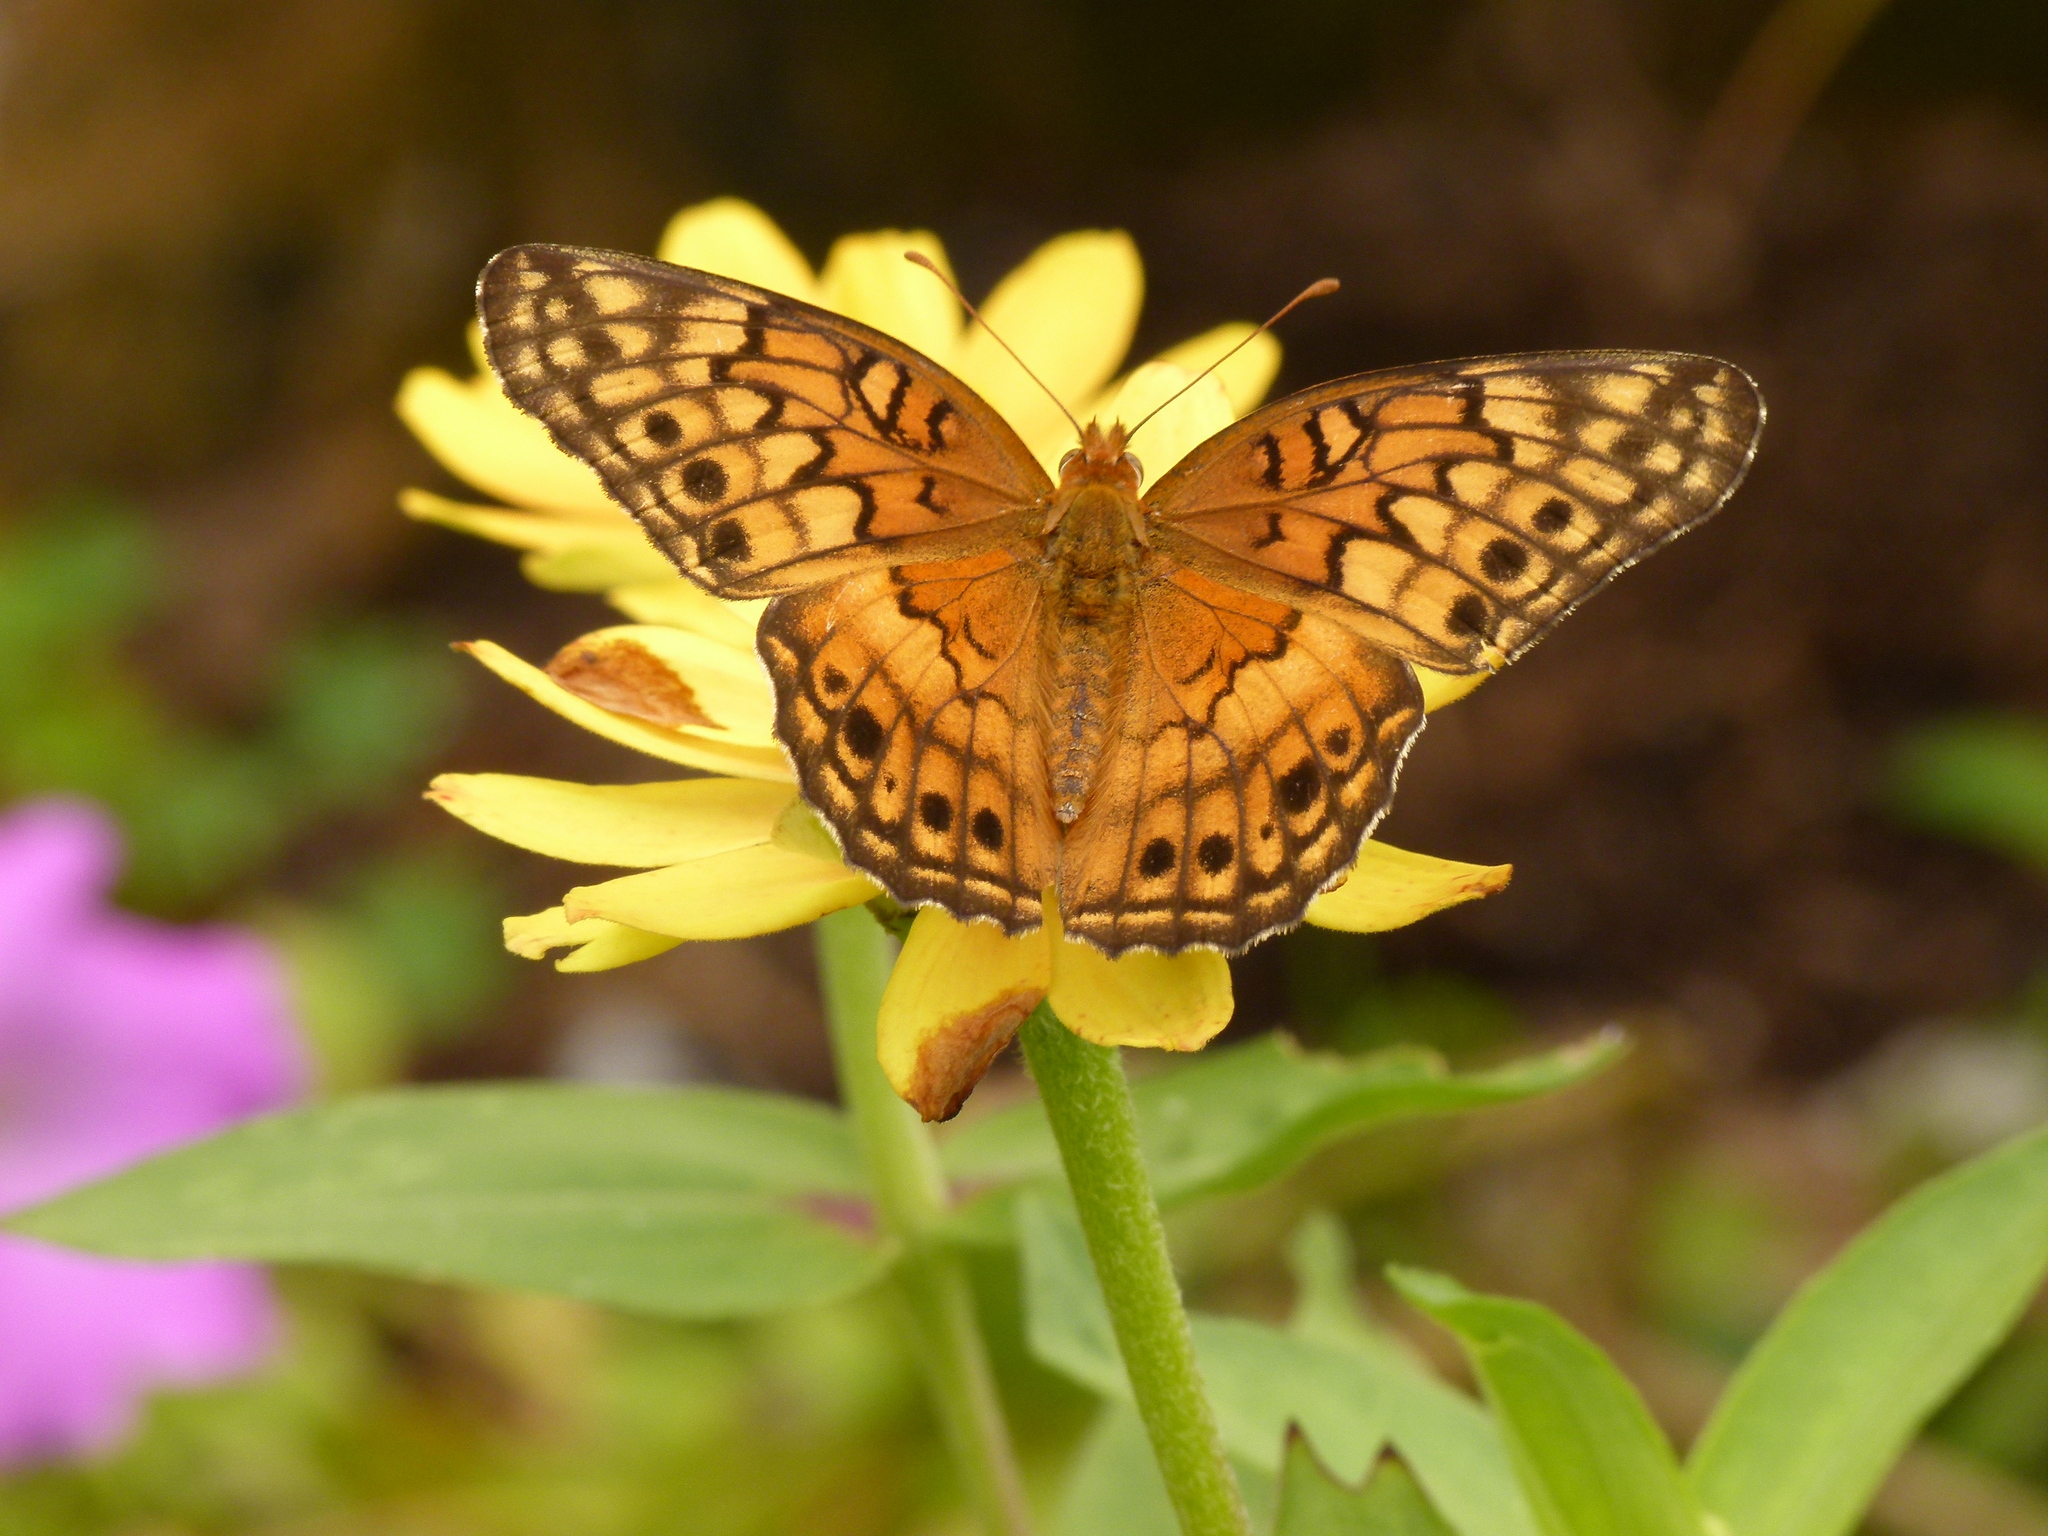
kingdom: Animalia
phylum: Arthropoda
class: Insecta
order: Lepidoptera
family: Nymphalidae
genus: Euptoieta
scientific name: Euptoieta claudia
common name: Variegated fritillary
